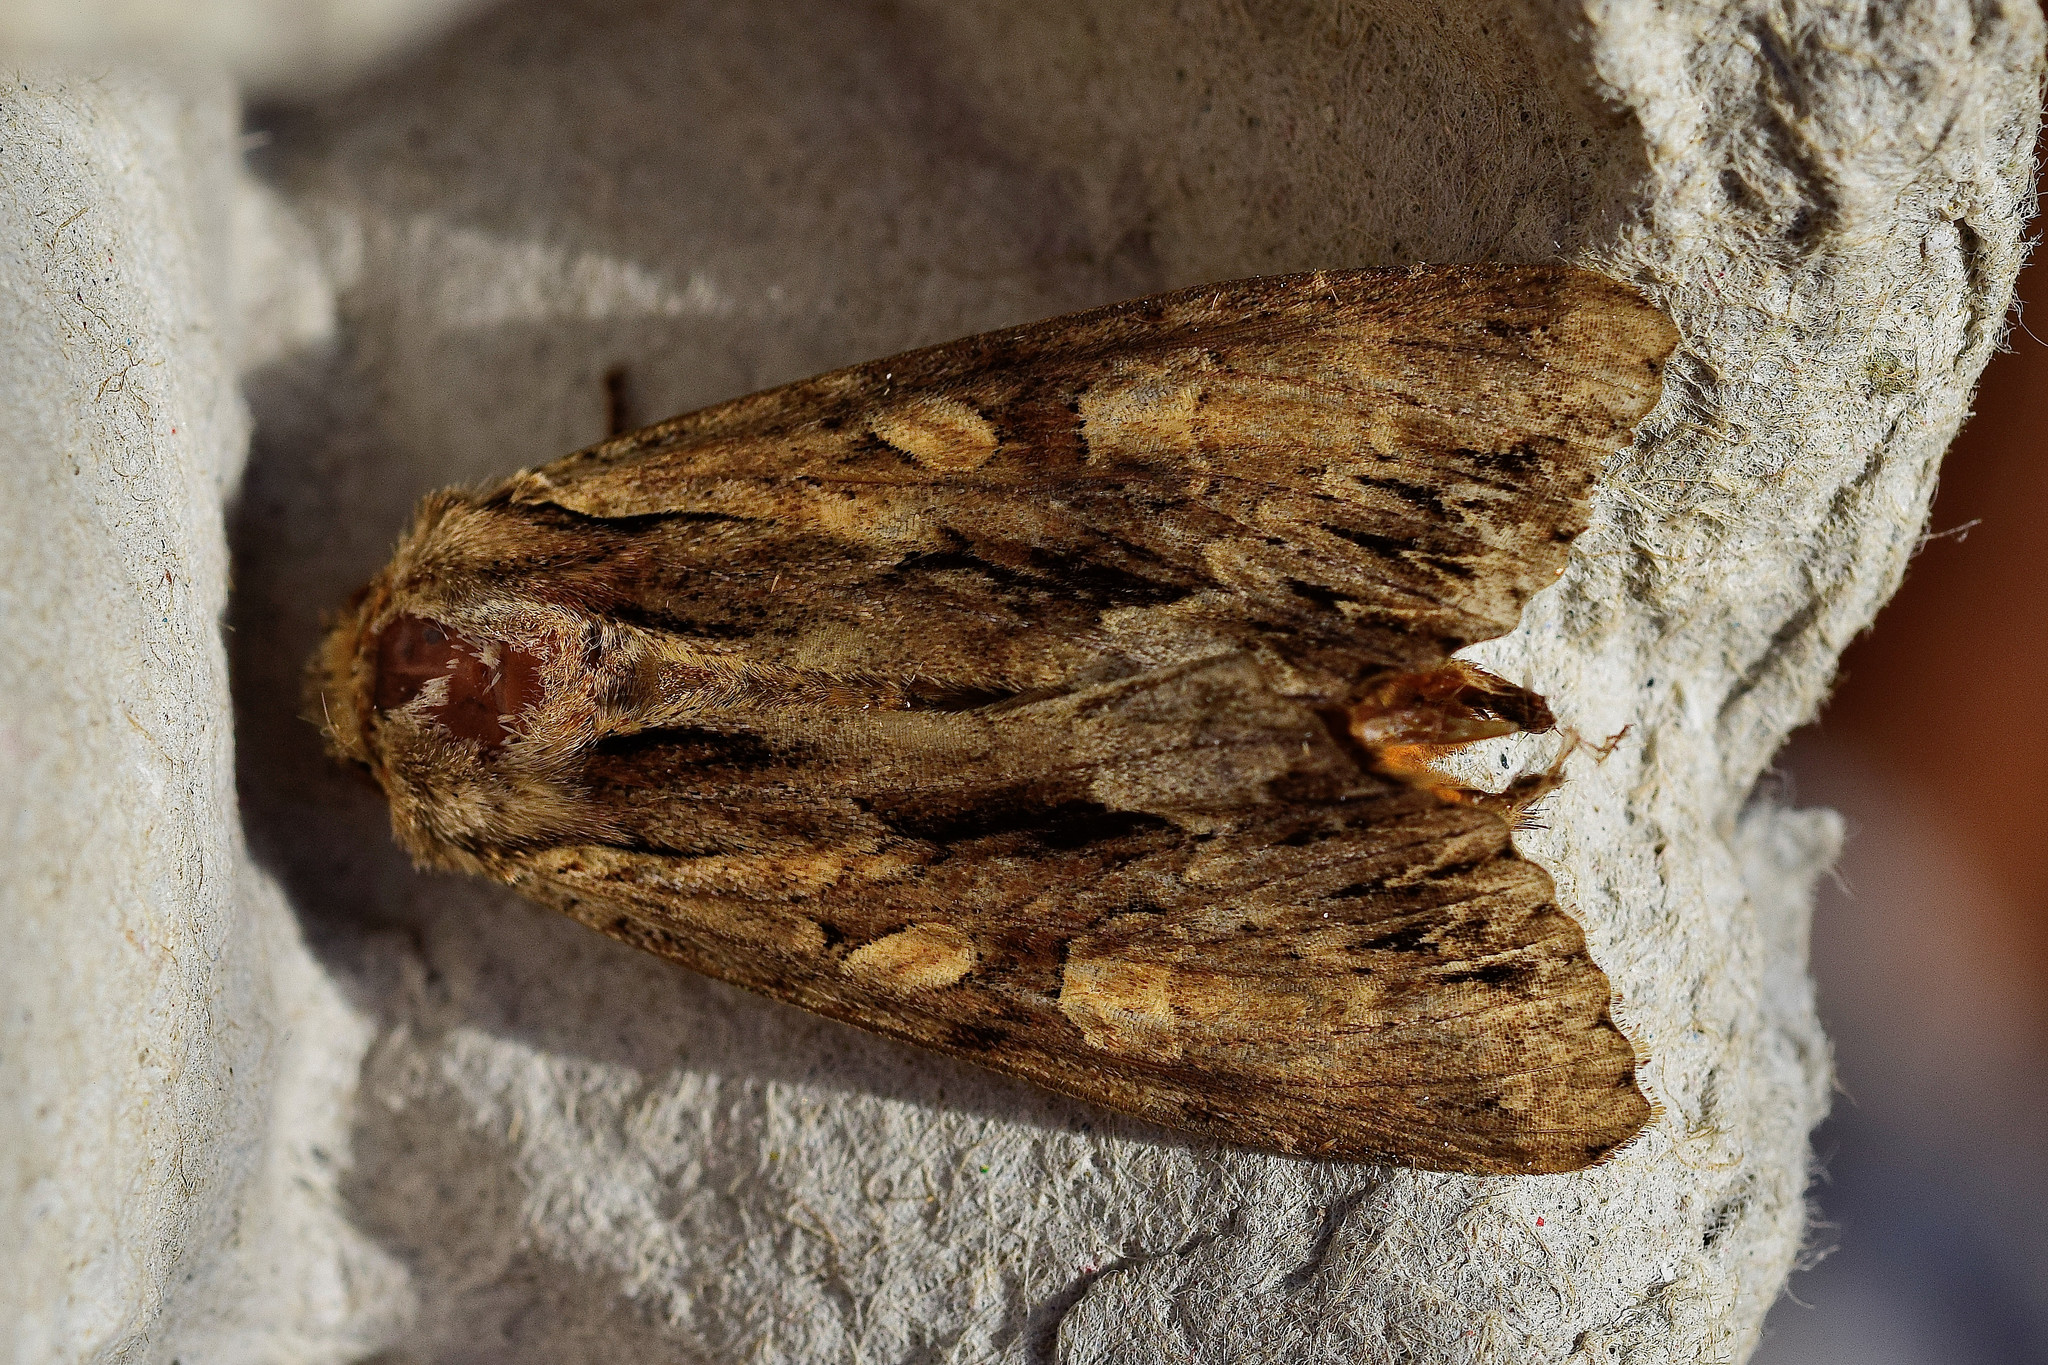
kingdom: Animalia
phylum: Arthropoda
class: Insecta
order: Lepidoptera
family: Noctuidae
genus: Apamea
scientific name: Apamea monoglypha
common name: Dark arches
